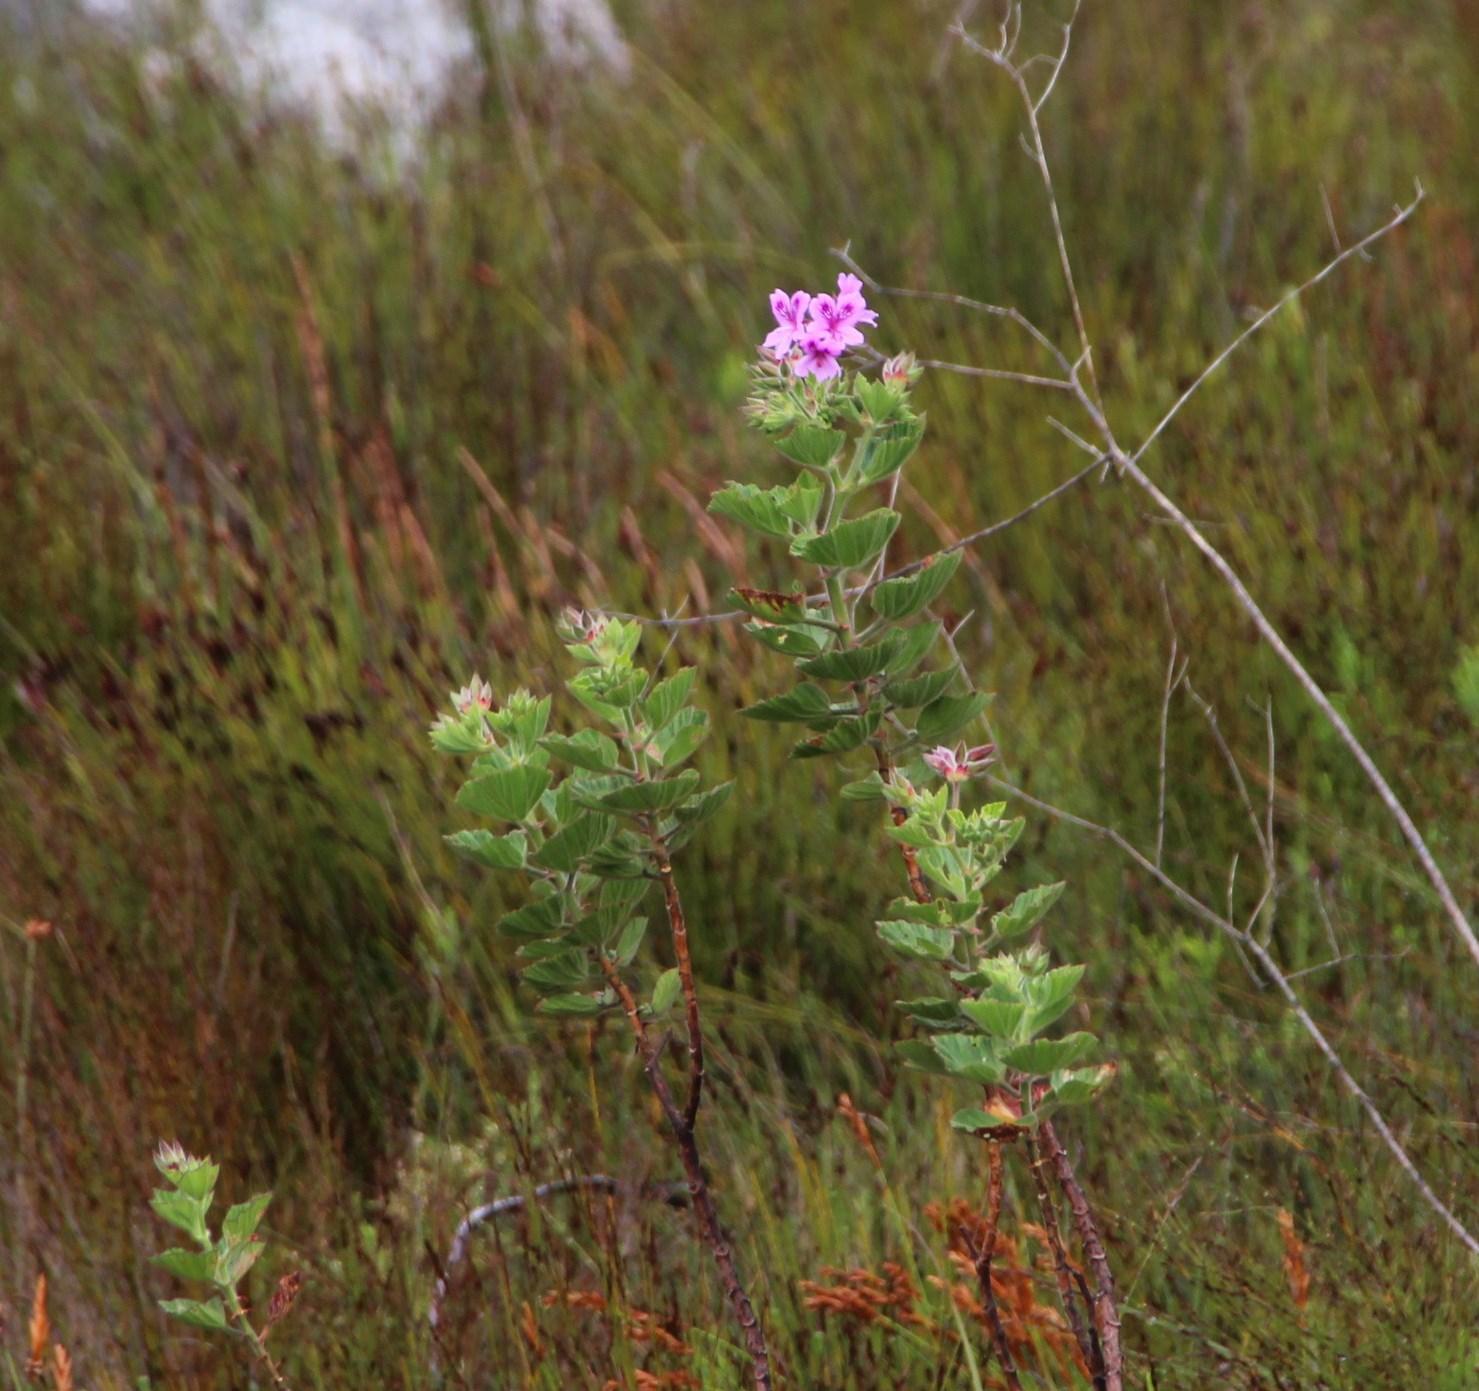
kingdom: Plantae
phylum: Tracheophyta
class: Magnoliopsida
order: Geraniales
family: Geraniaceae
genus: Pelargonium
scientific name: Pelargonium cucullatum
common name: Tree pelargonium
